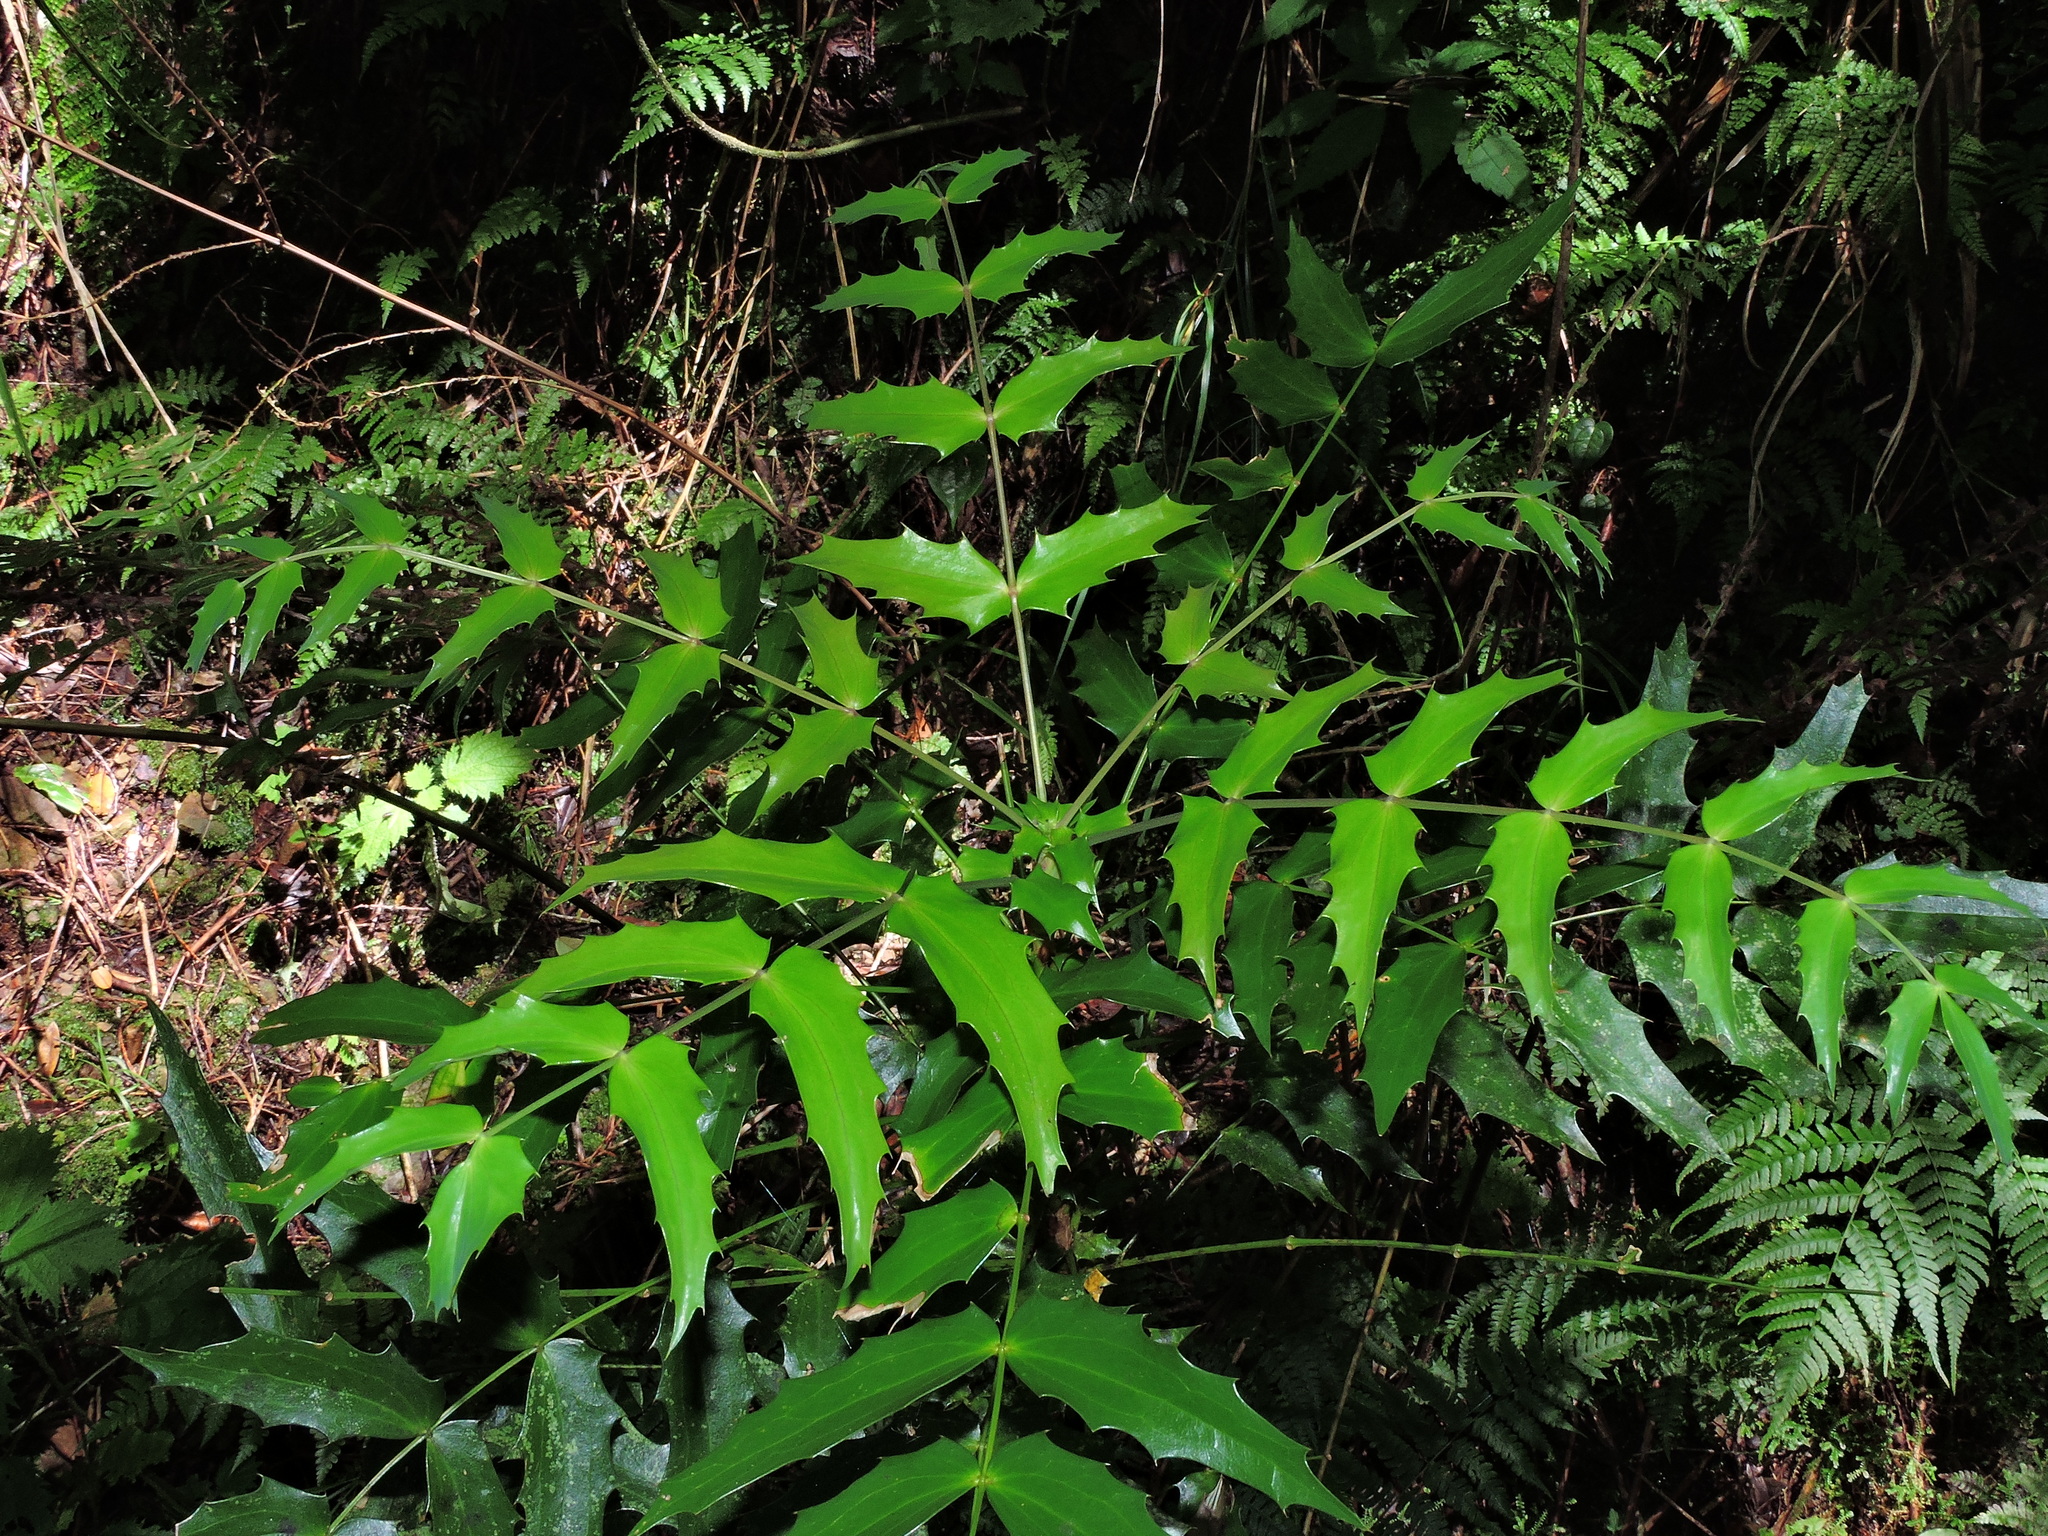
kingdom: Plantae
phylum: Tracheophyta
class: Magnoliopsida
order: Ranunculales
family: Berberidaceae
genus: Mahonia
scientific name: Mahonia oiwakensis
